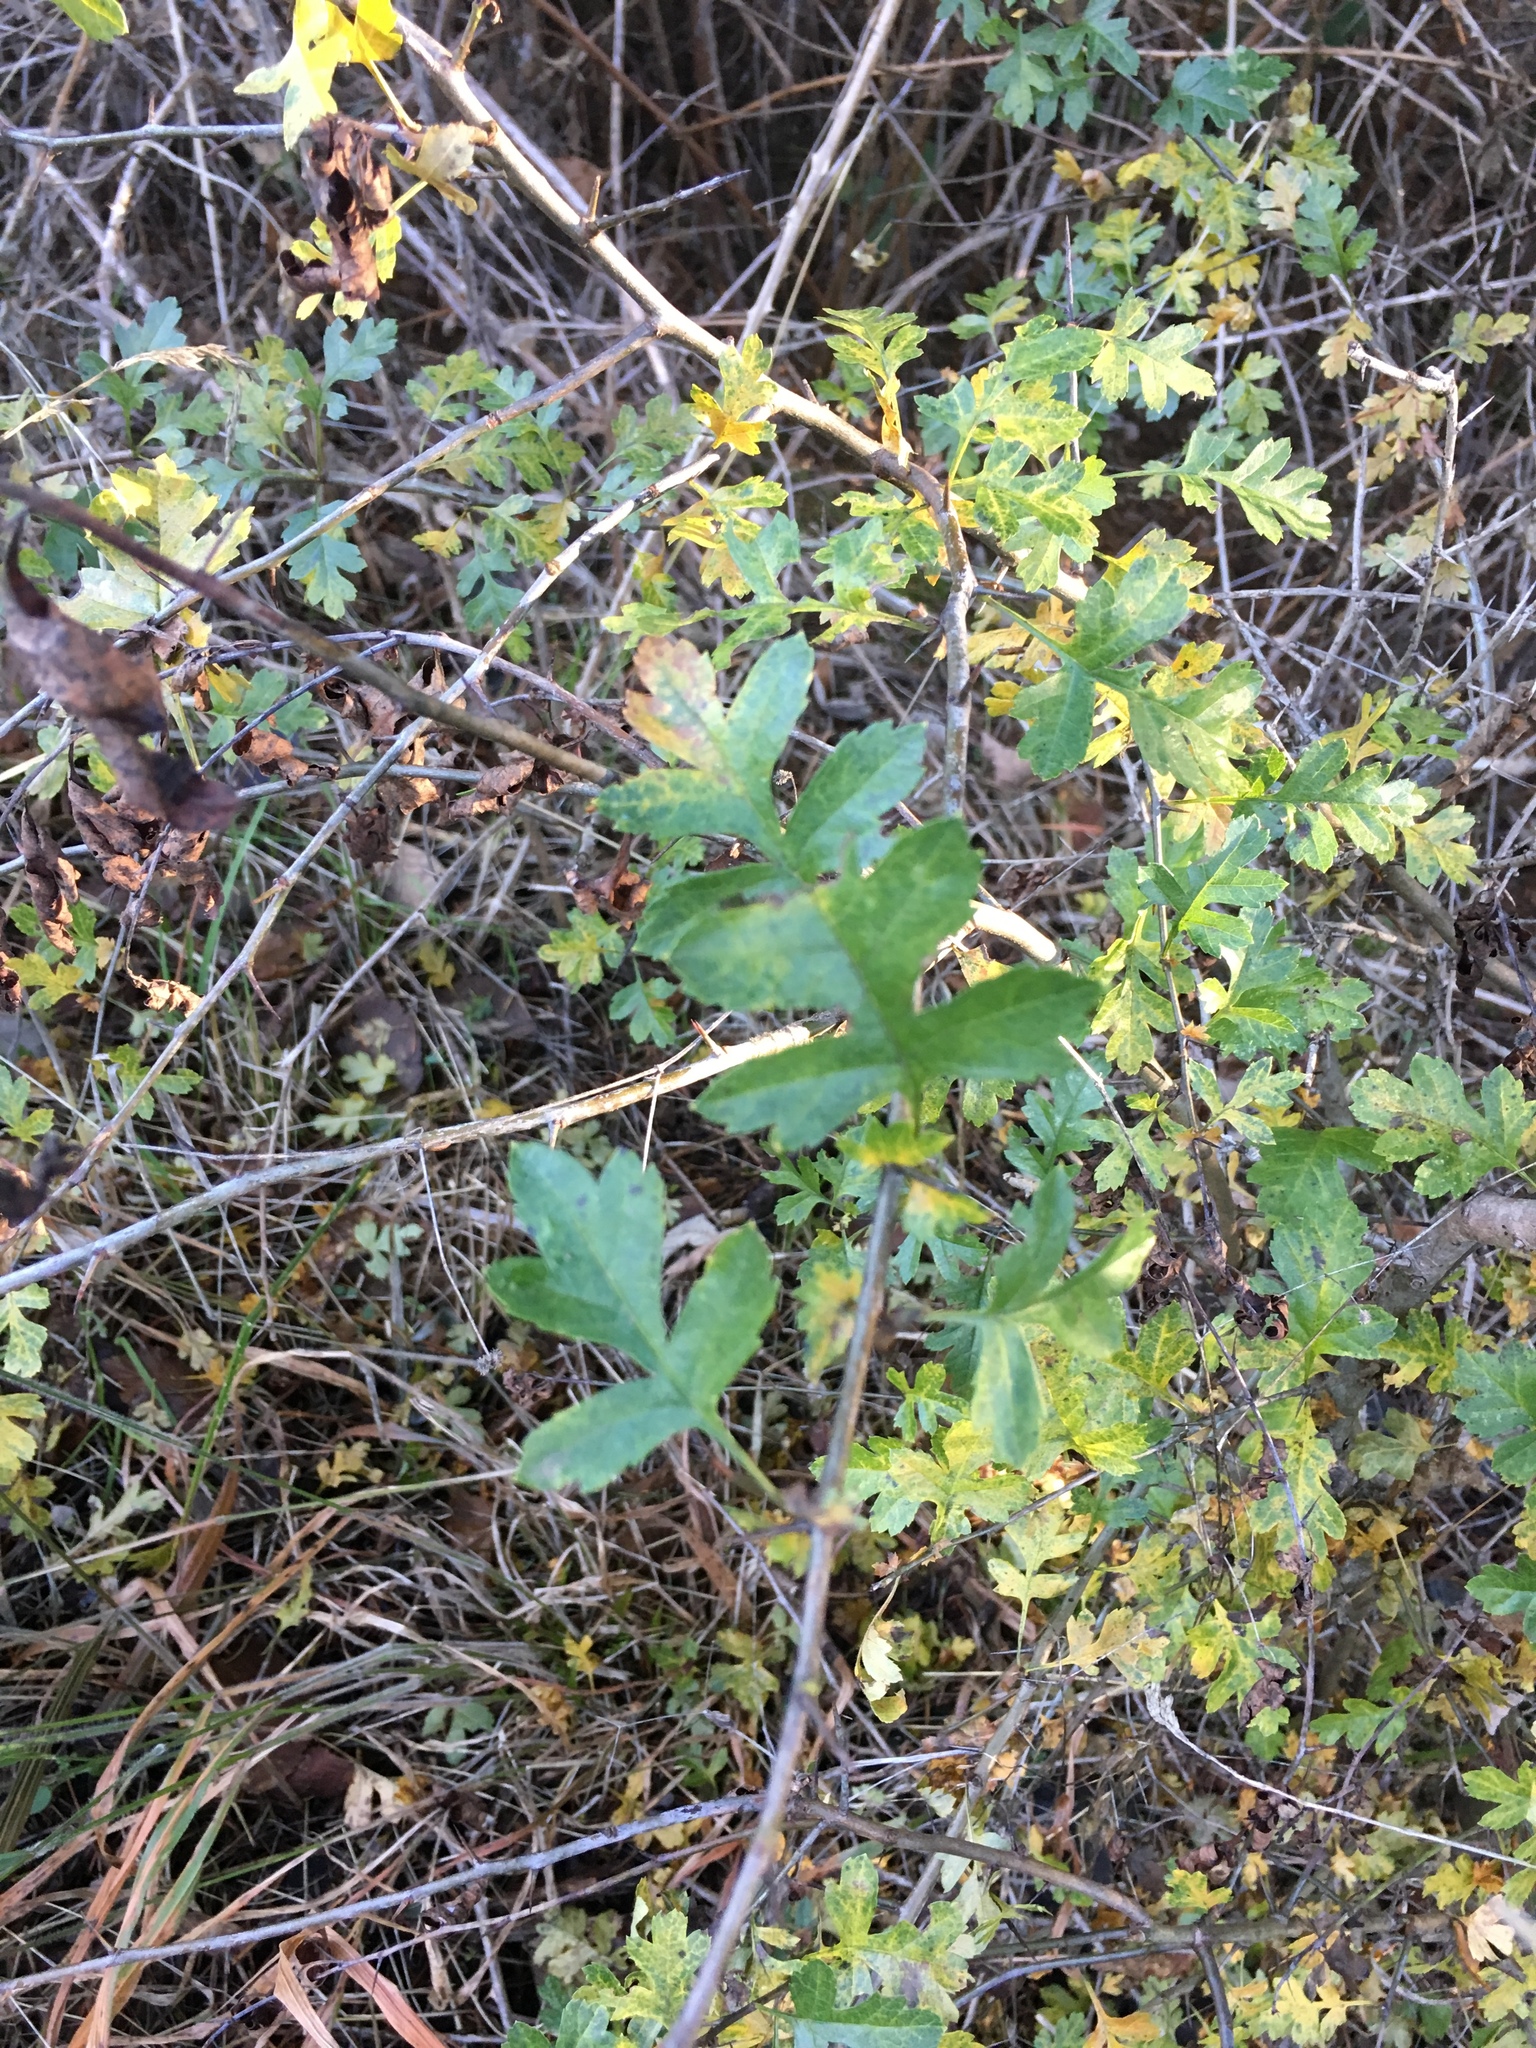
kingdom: Plantae
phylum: Tracheophyta
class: Magnoliopsida
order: Rosales
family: Rosaceae
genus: Crataegus
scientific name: Crataegus monogyna
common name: Hawthorn
